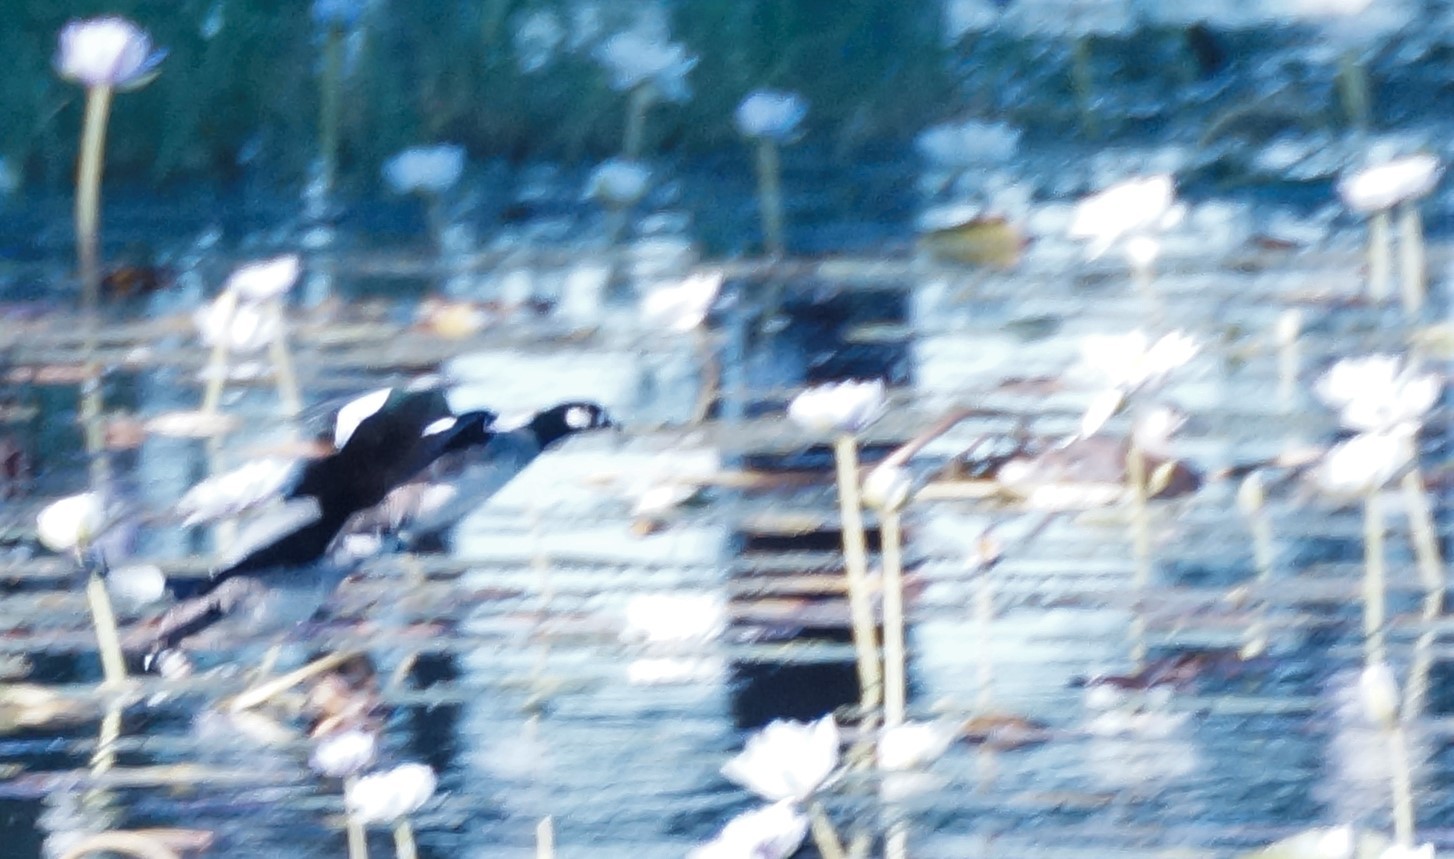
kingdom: Animalia
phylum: Chordata
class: Aves
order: Anseriformes
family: Anatidae
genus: Nettapus
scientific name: Nettapus pulchellus
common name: Green pygmy-goose
